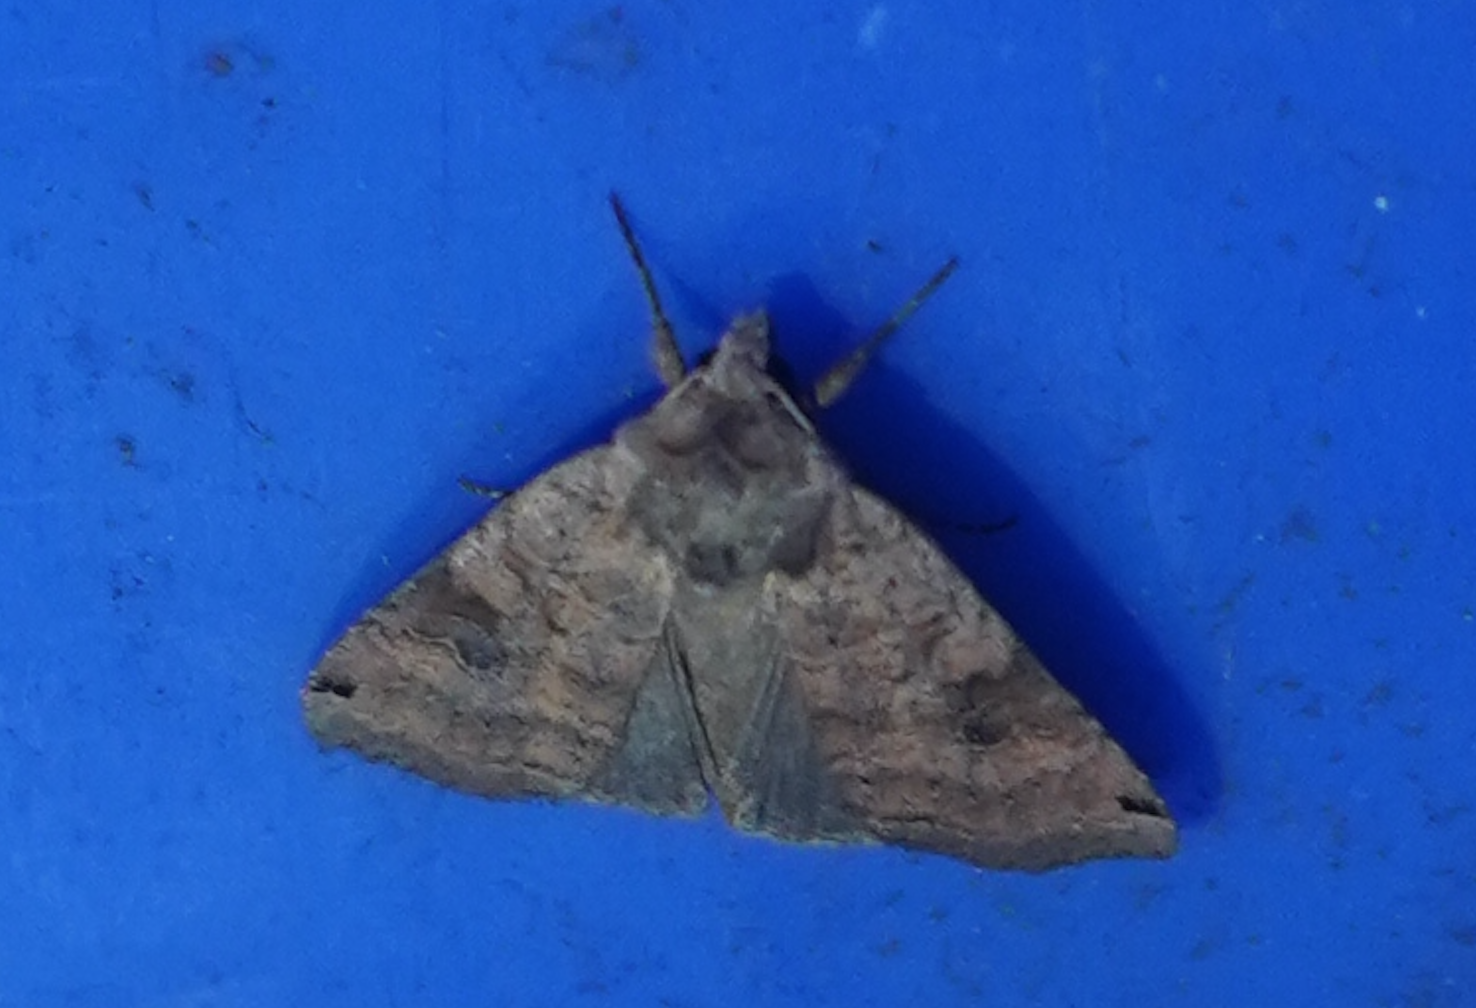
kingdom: Animalia
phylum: Arthropoda
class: Insecta
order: Lepidoptera
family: Noctuidae
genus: Xestia
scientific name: Xestia smithii
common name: Smith's dart
